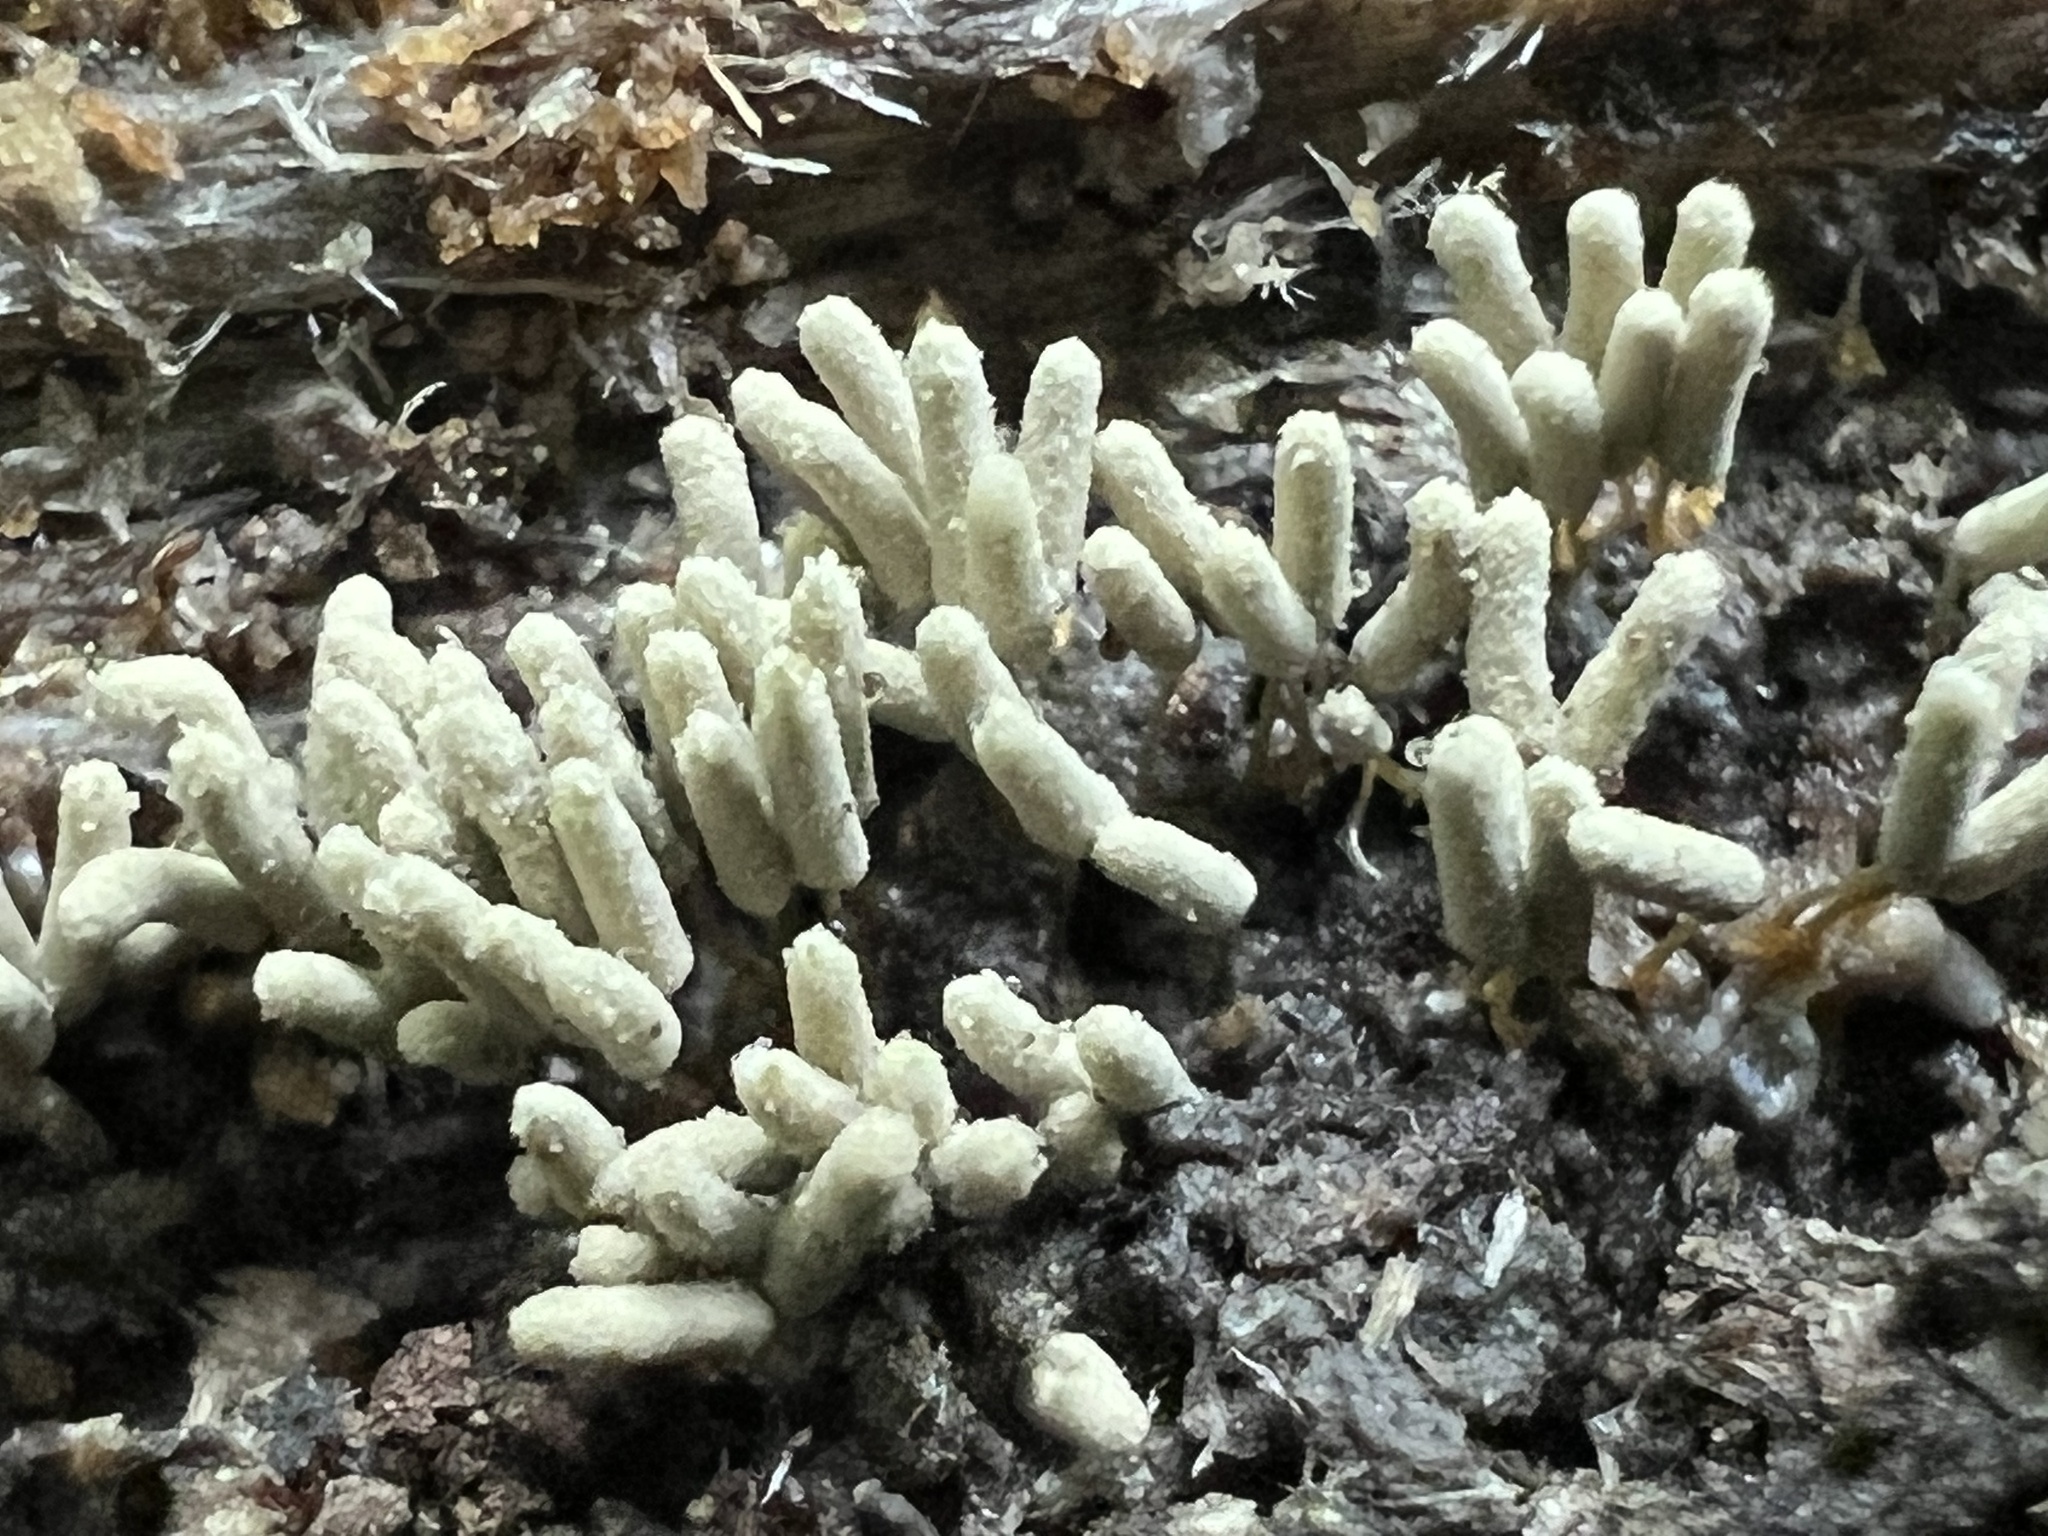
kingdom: Protozoa
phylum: Mycetozoa
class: Myxomycetes
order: Trichiales
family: Arcyriaceae
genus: Arcyria
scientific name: Arcyria cinerea
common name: White carnival candy slime mold
